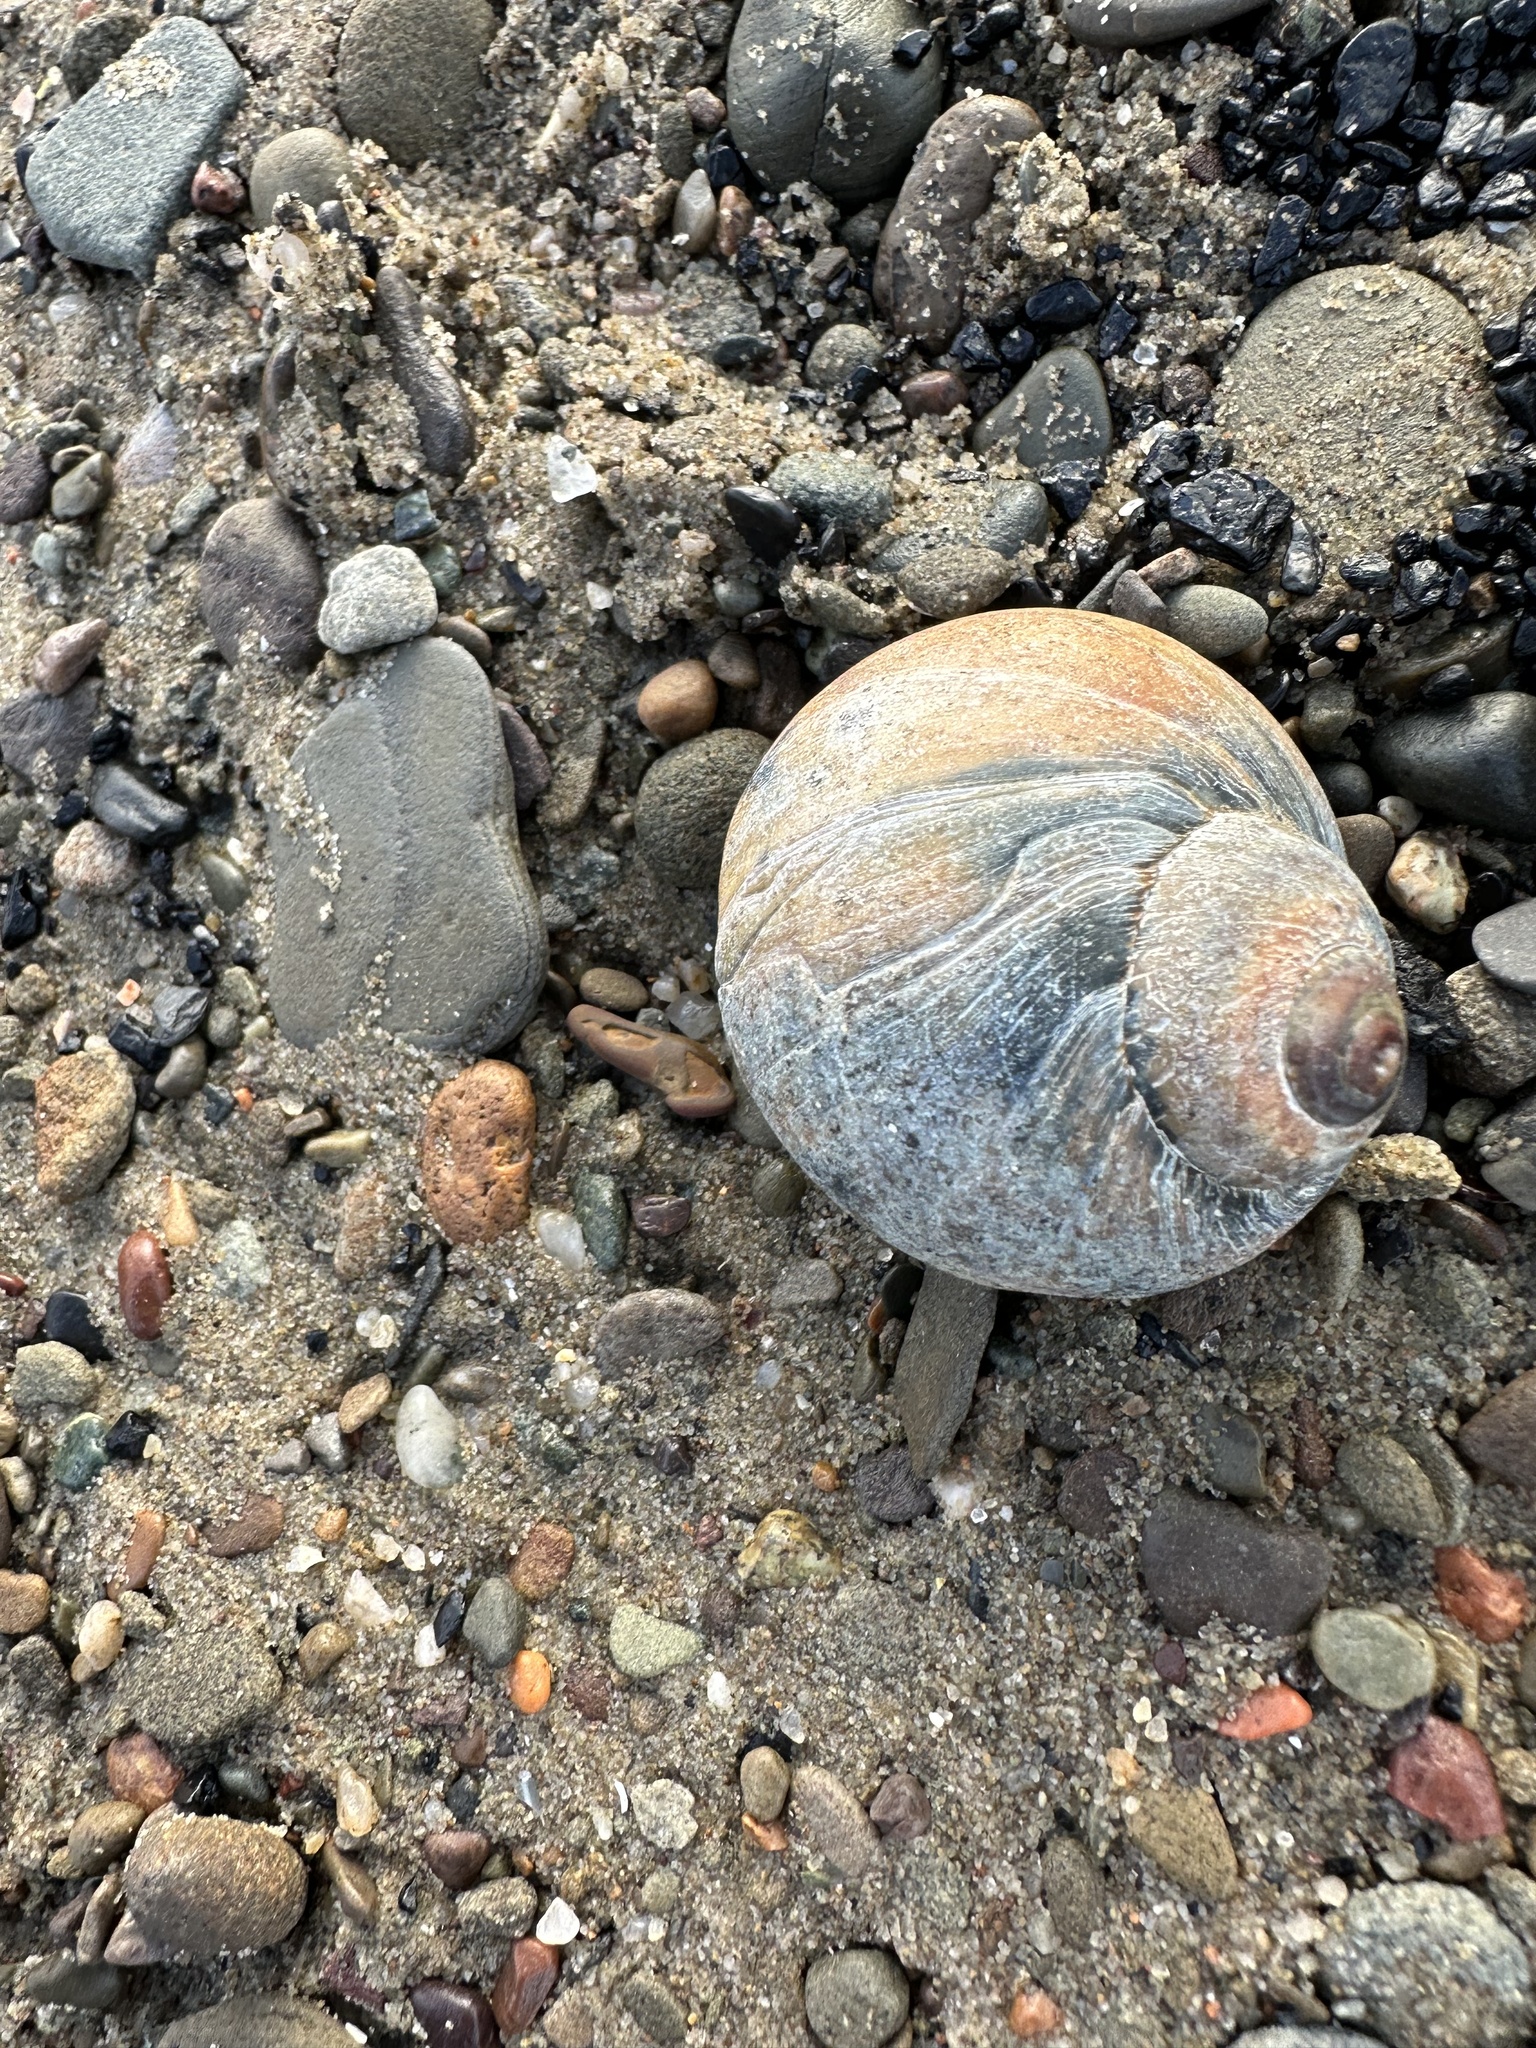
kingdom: Animalia
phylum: Mollusca
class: Gastropoda
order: Littorinimorpha
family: Naticidae
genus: Euspira
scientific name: Euspira heros
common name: Common northern moonsnail
